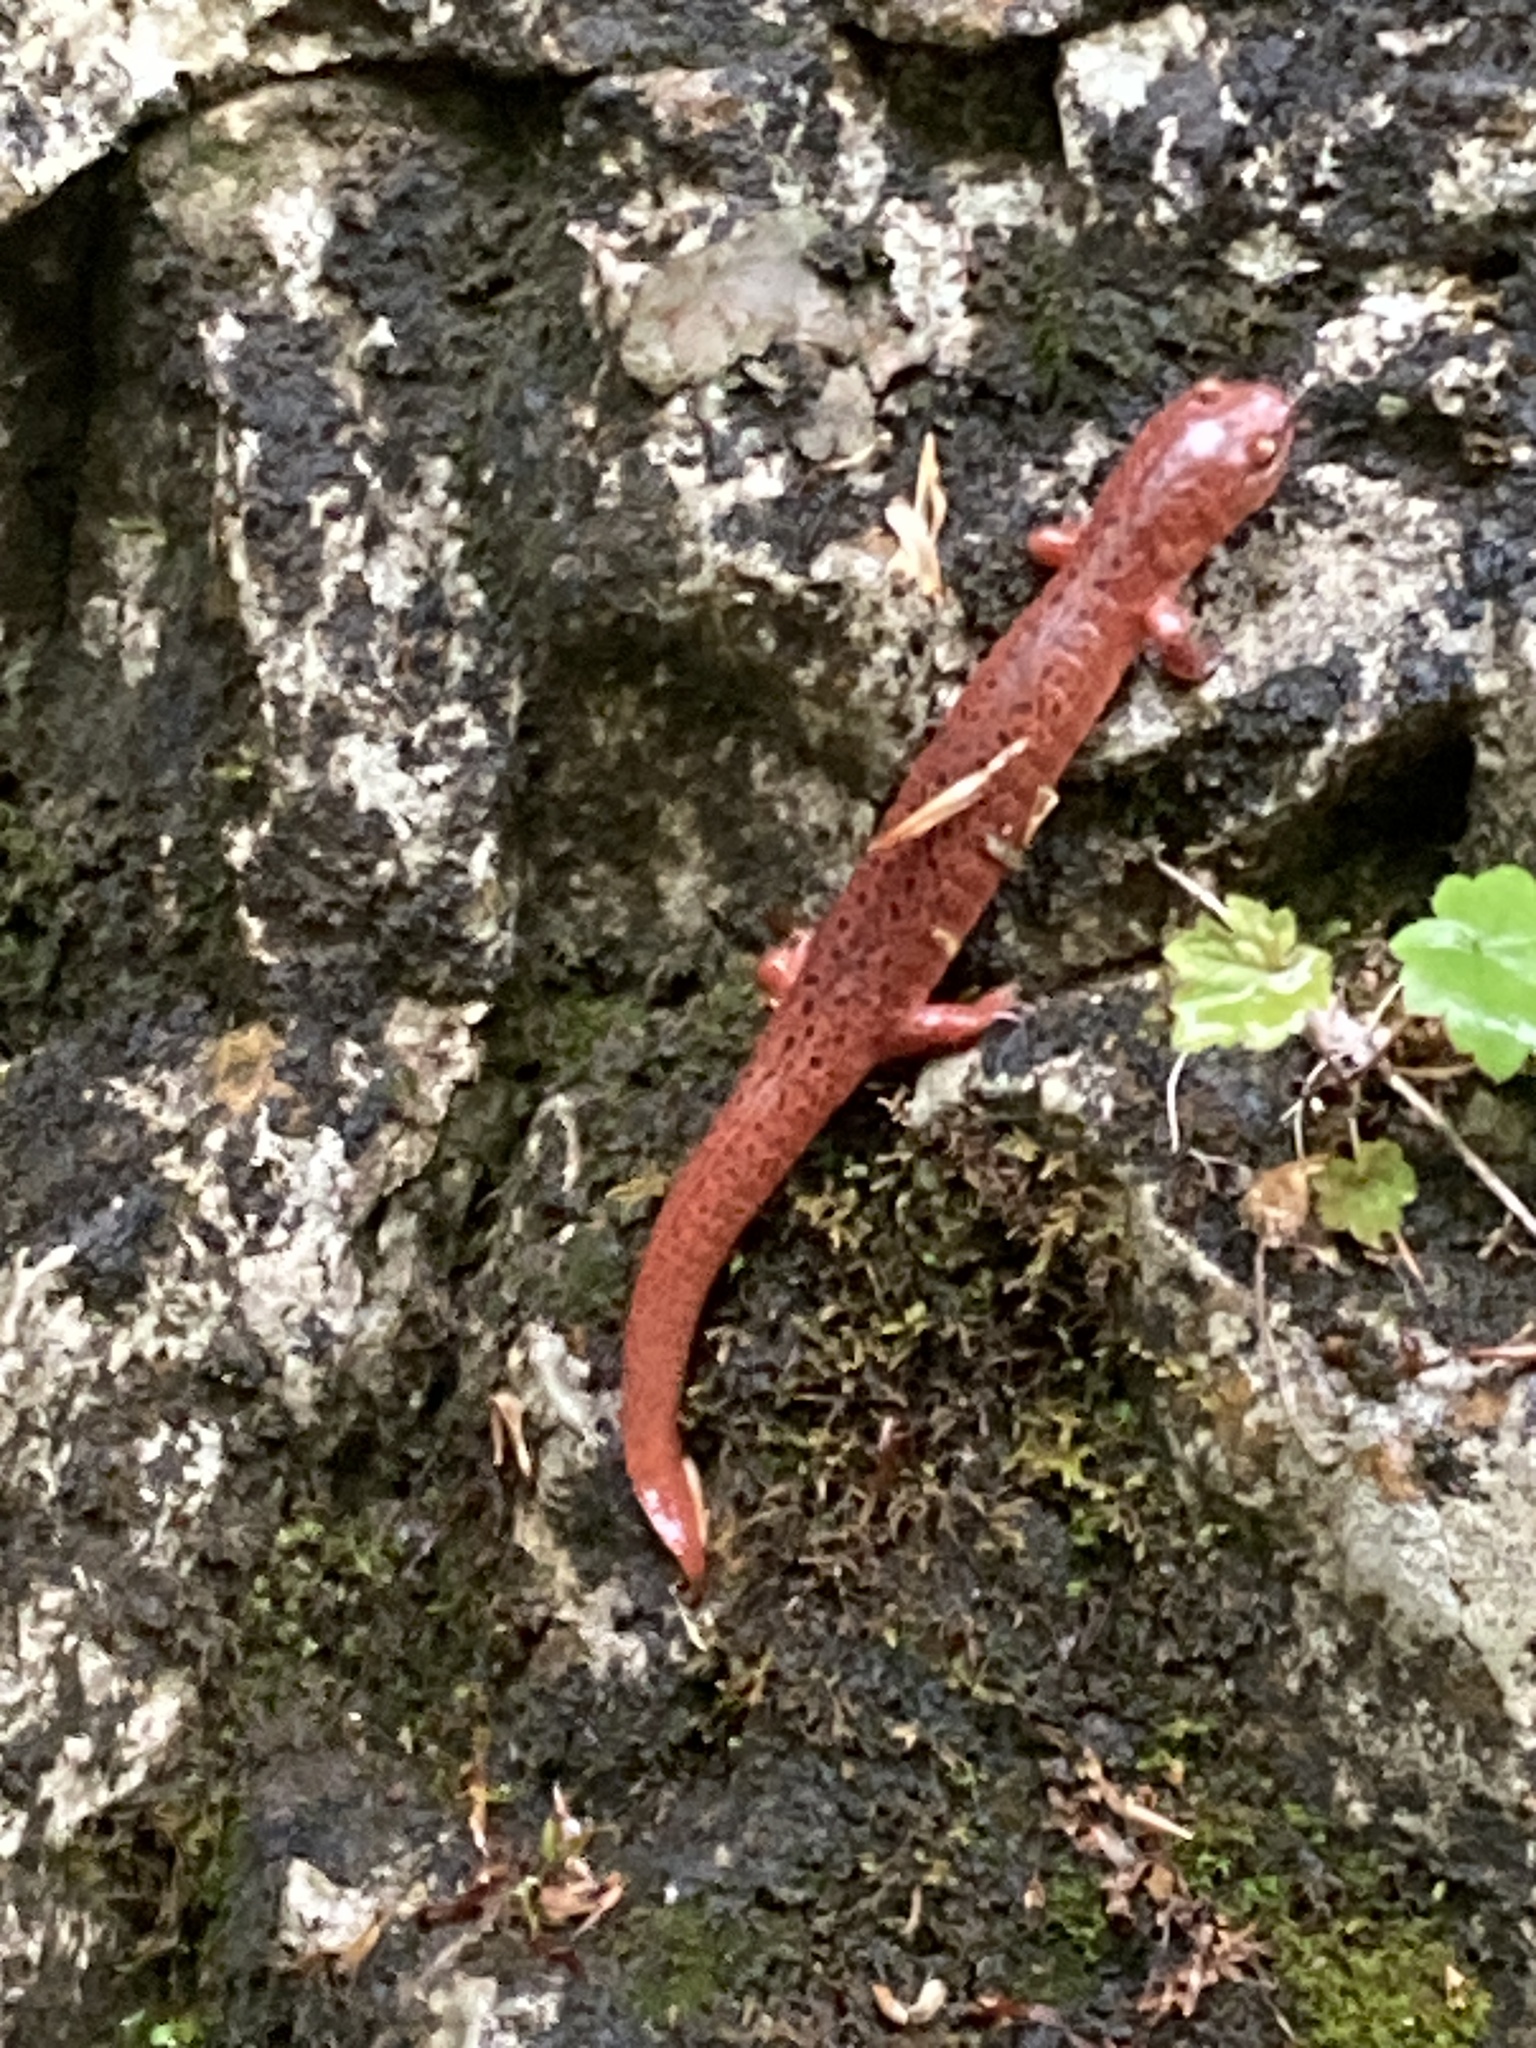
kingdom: Animalia
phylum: Chordata
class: Amphibia
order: Caudata
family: Plethodontidae
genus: Pseudotriton
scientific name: Pseudotriton ruber
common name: Red salamander
